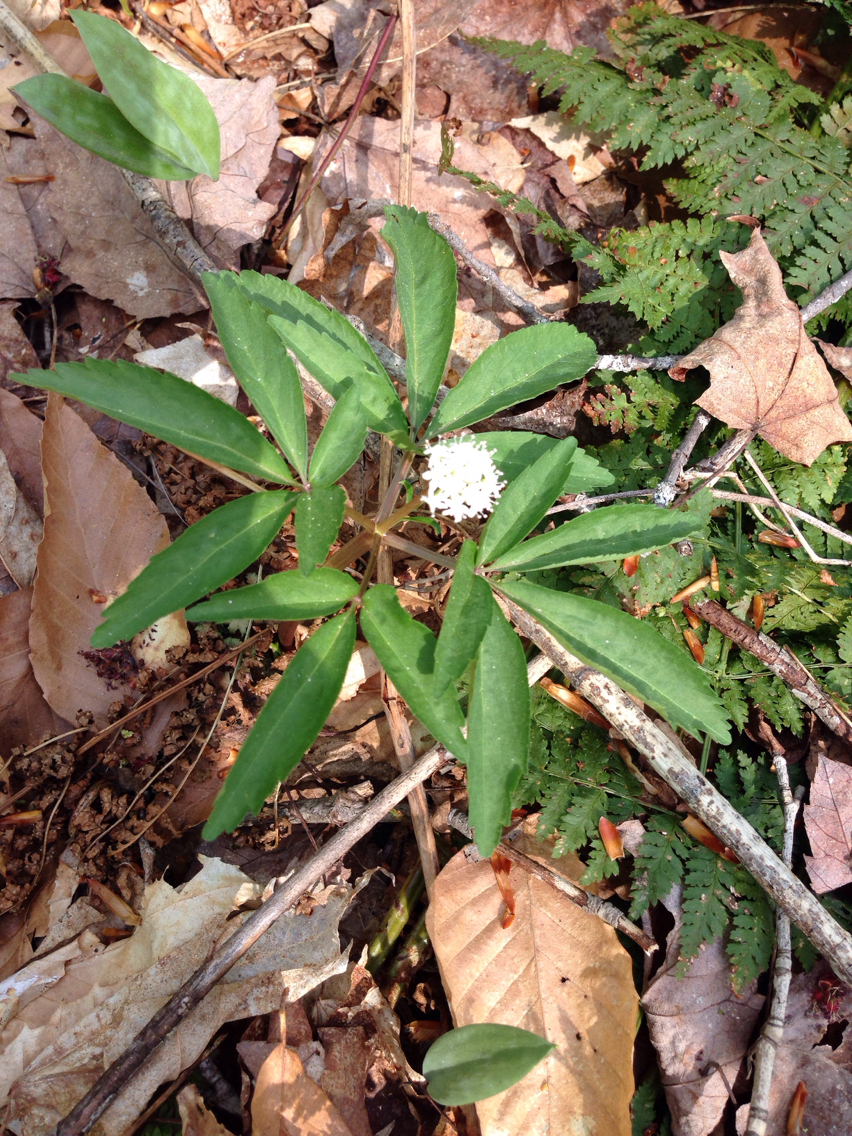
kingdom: Plantae
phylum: Tracheophyta
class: Magnoliopsida
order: Apiales
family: Araliaceae
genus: Panax
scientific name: Panax trifolius
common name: Dwarf ginseng
